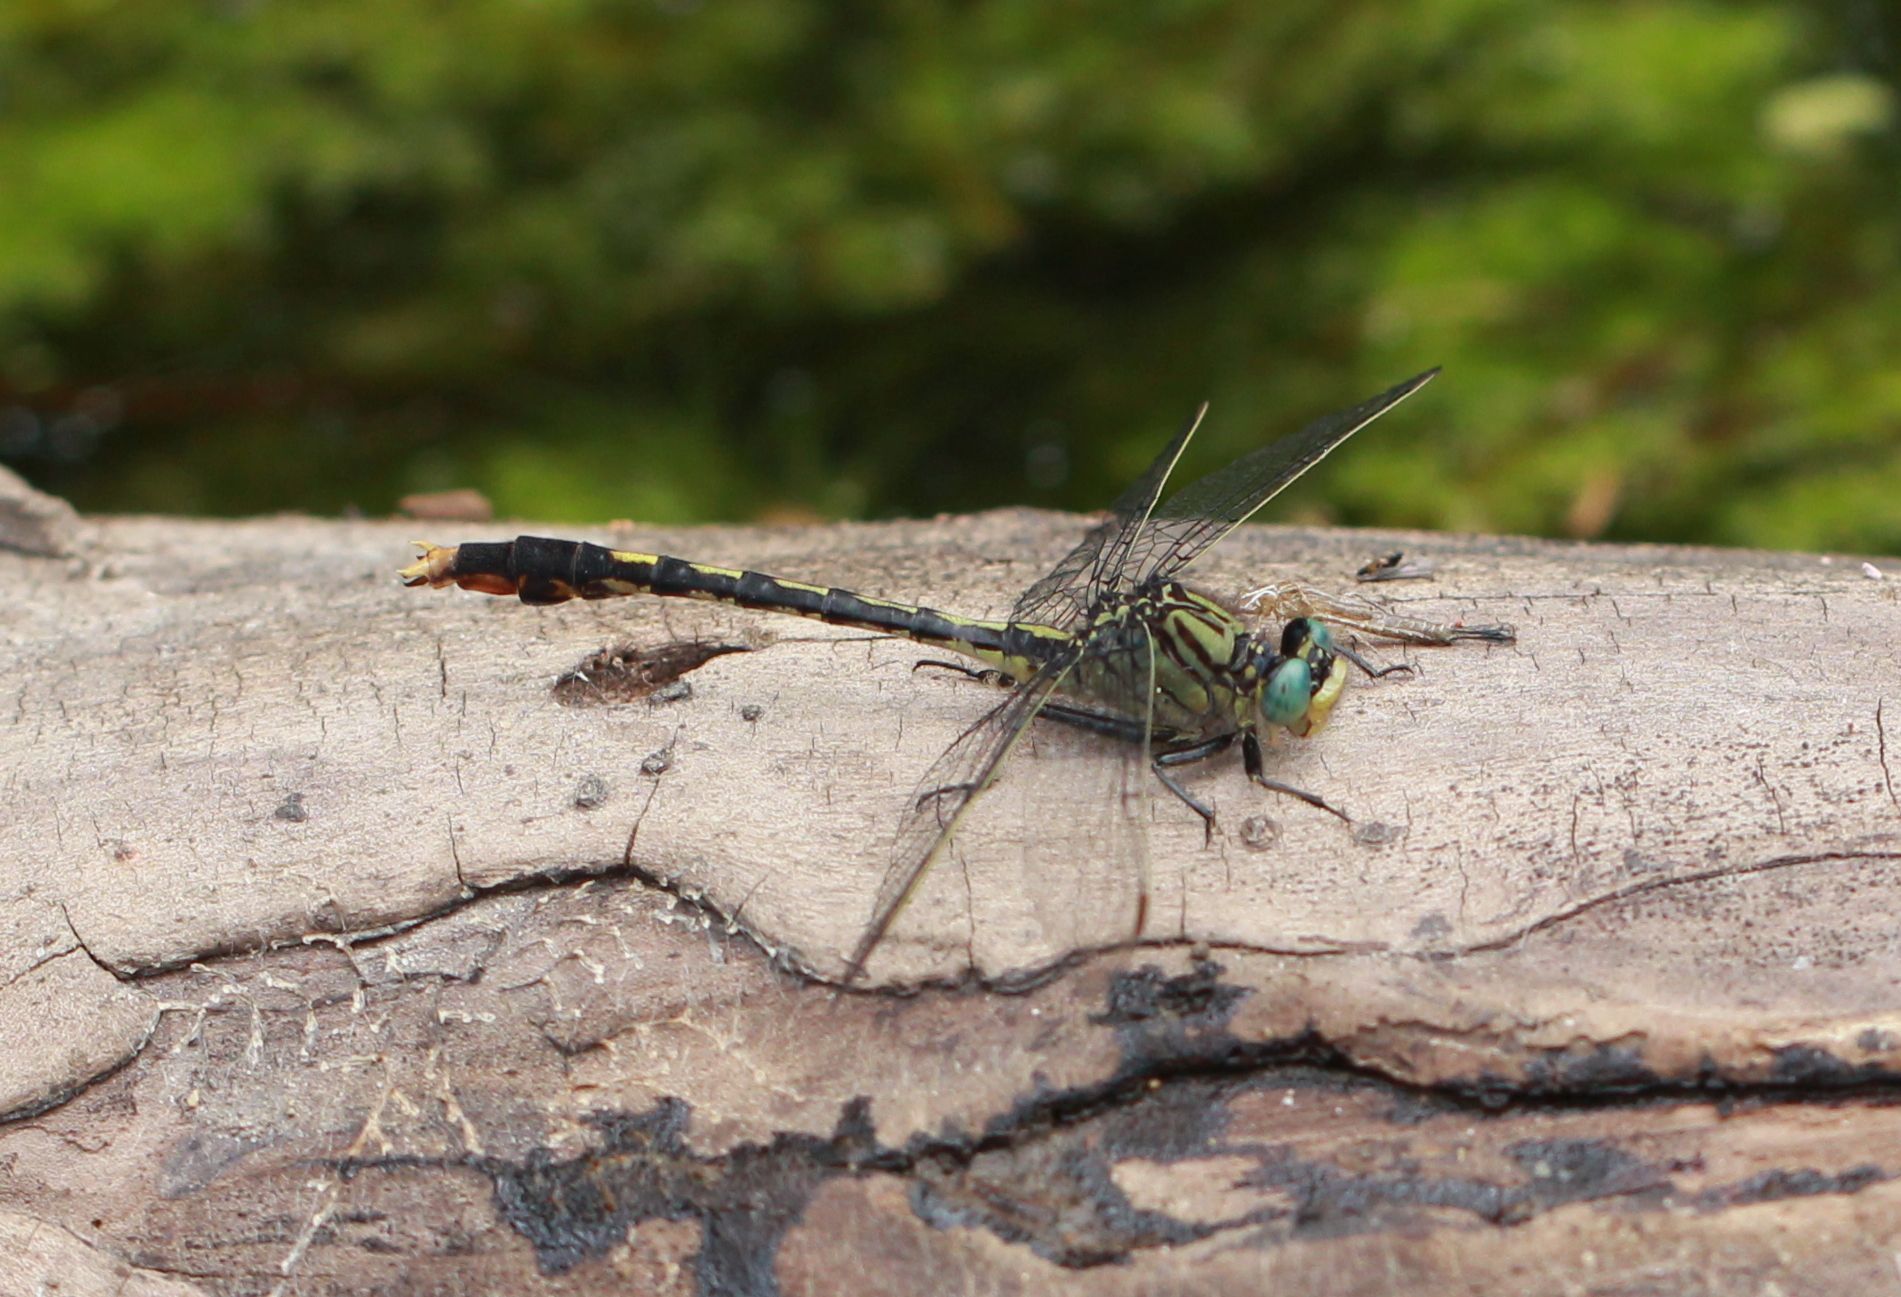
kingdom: Animalia
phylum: Arthropoda
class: Insecta
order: Odonata
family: Gomphidae
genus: Arigomphus
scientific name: Arigomphus villosipes
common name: Unicorn clubtail
